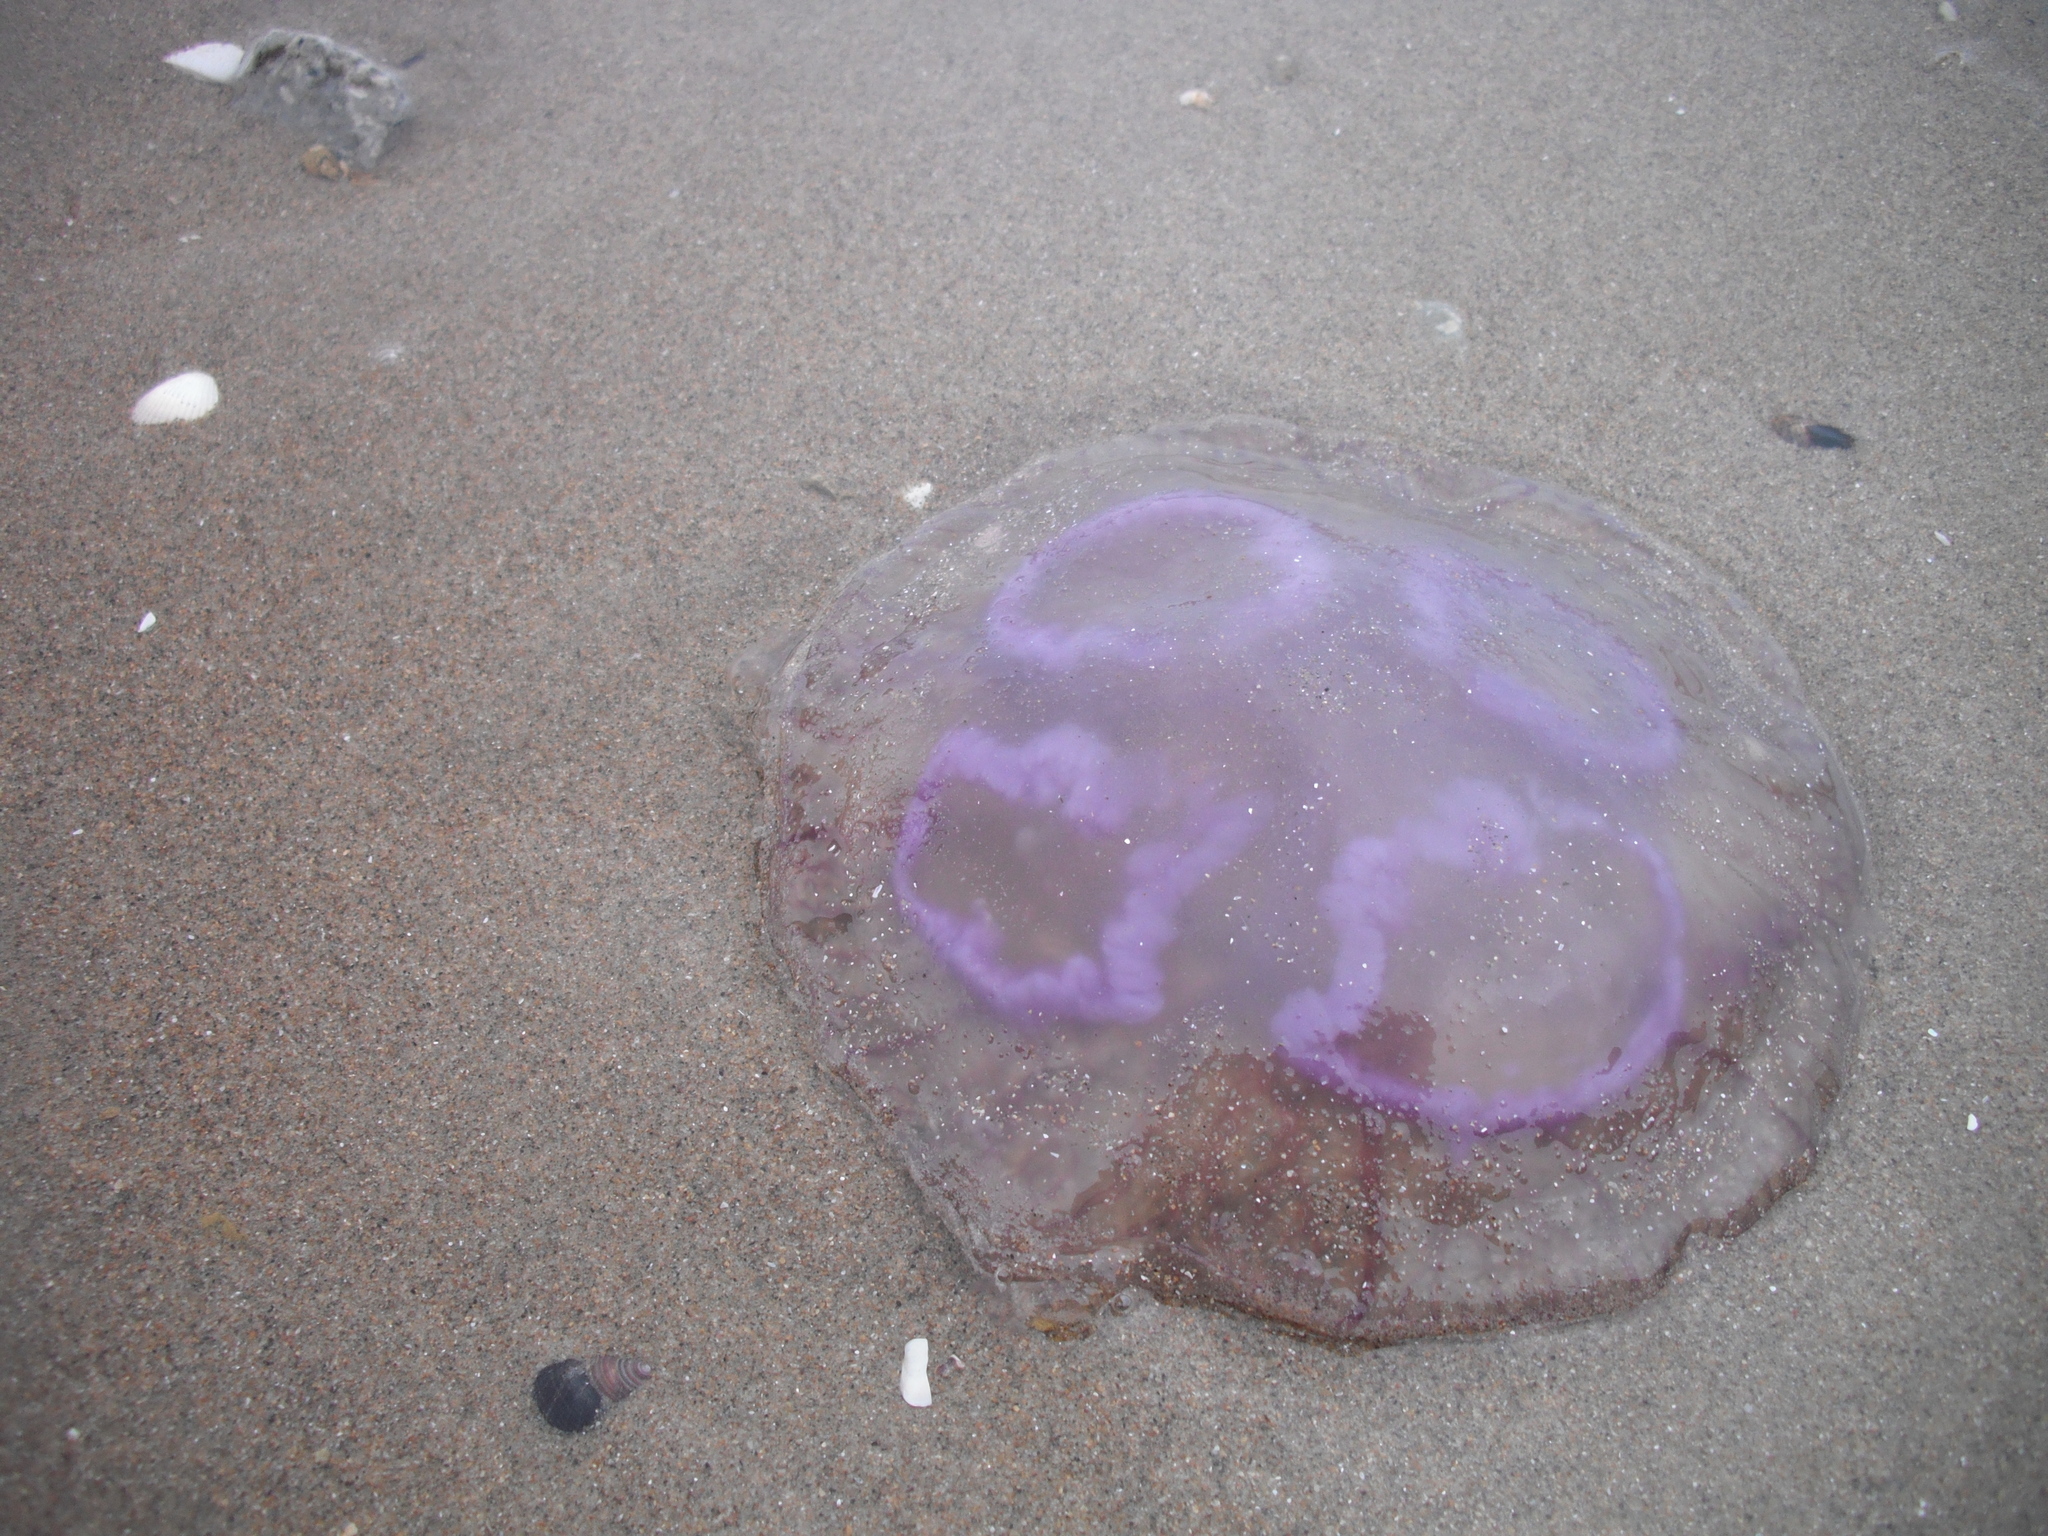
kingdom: Animalia
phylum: Cnidaria
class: Scyphozoa
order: Semaeostomeae
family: Ulmaridae
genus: Aurelia
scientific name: Aurelia aurita
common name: Moon jellyfish
